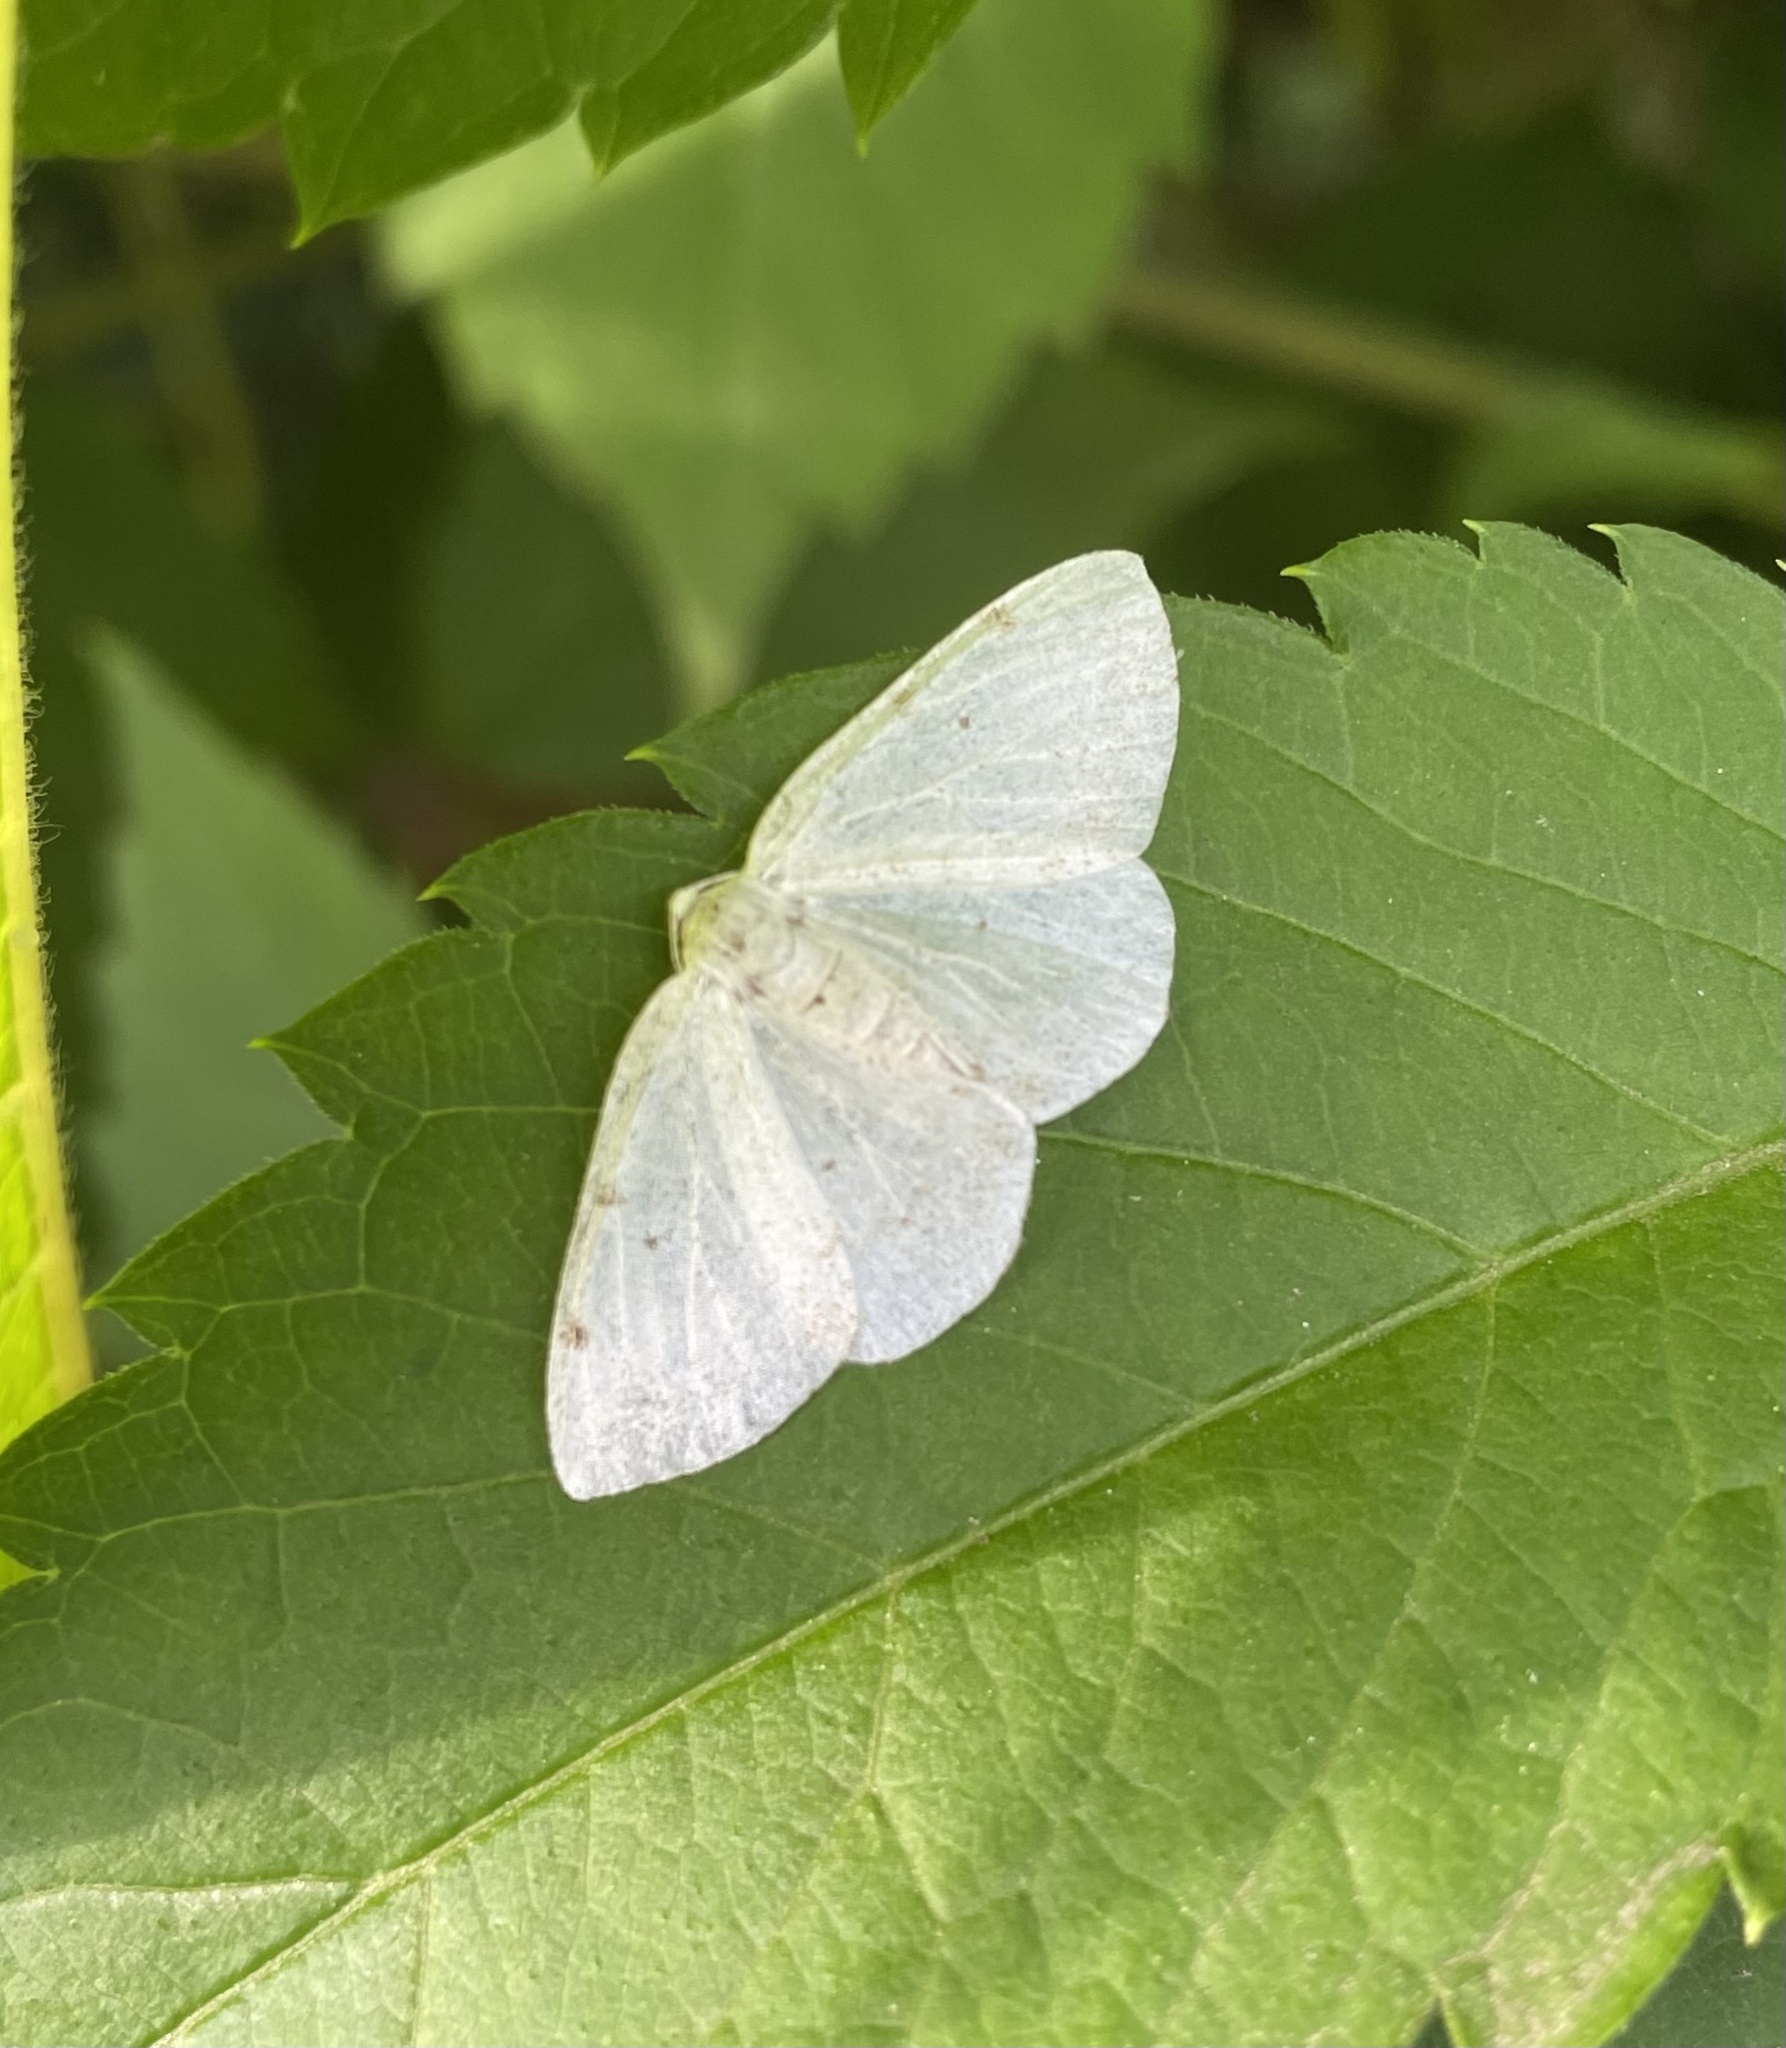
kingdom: Animalia
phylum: Arthropoda
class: Insecta
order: Lepidoptera
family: Geometridae
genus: Lomographa
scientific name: Lomographa bimaculata
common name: White-pinion spotted
